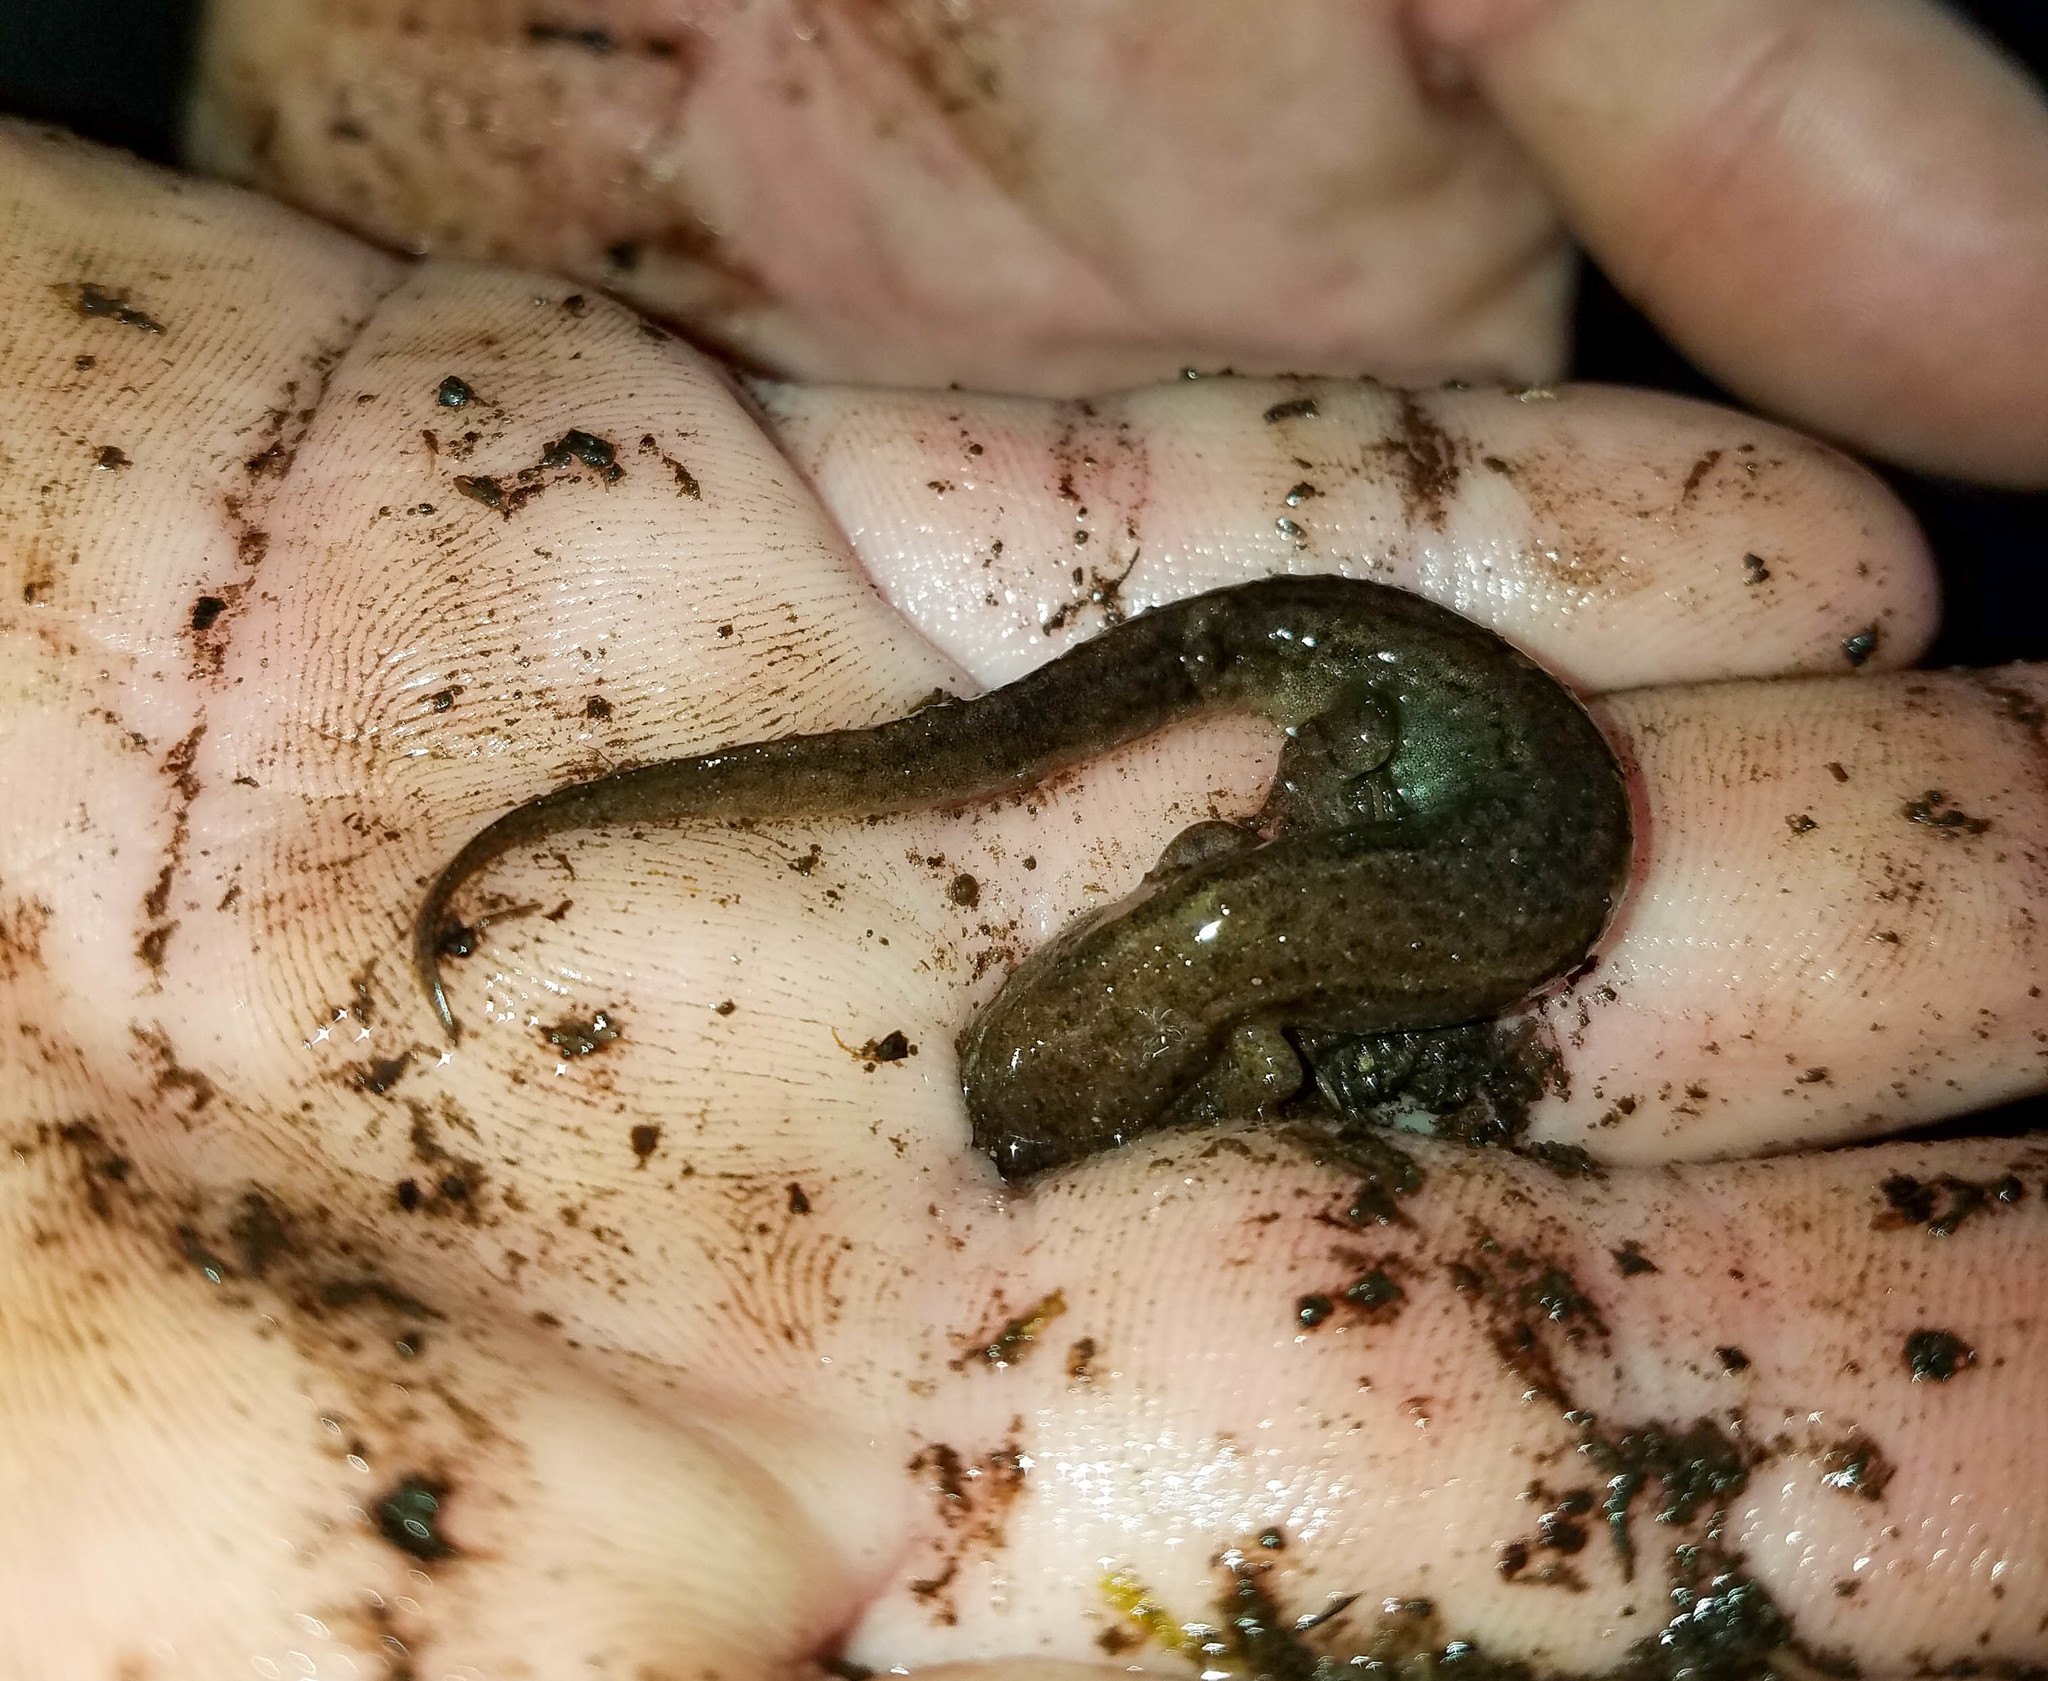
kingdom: Animalia
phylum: Chordata
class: Amphibia
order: Caudata
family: Plethodontidae
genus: Desmognathus
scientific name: Desmognathus fuscus
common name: Northern dusky salamander
